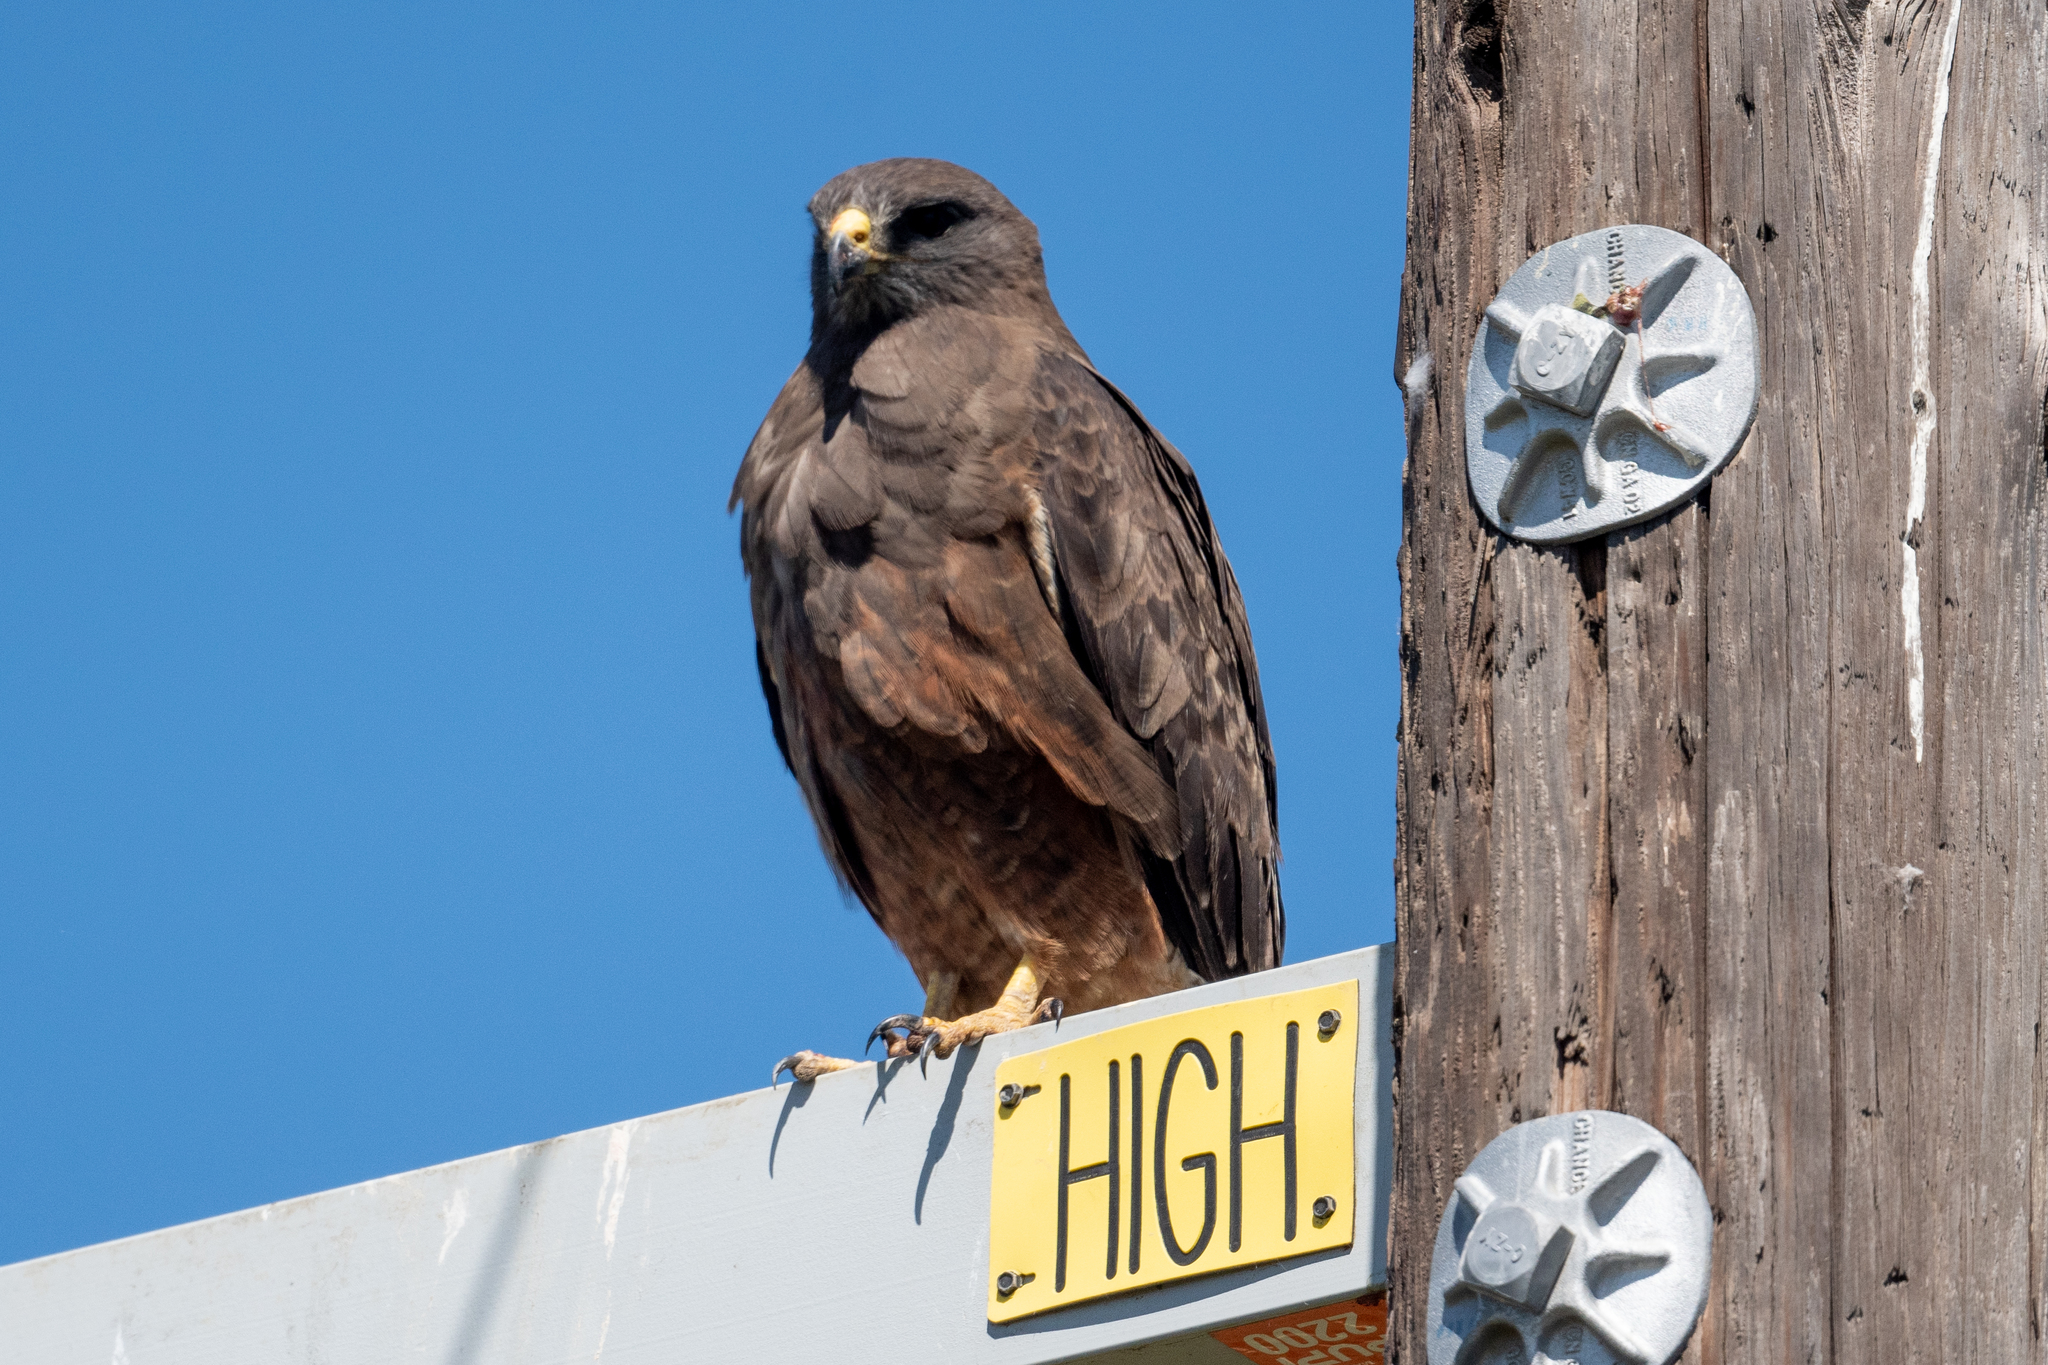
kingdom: Animalia
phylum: Chordata
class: Aves
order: Accipitriformes
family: Accipitridae
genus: Buteo
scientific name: Buteo swainsoni
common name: Swainson's hawk
